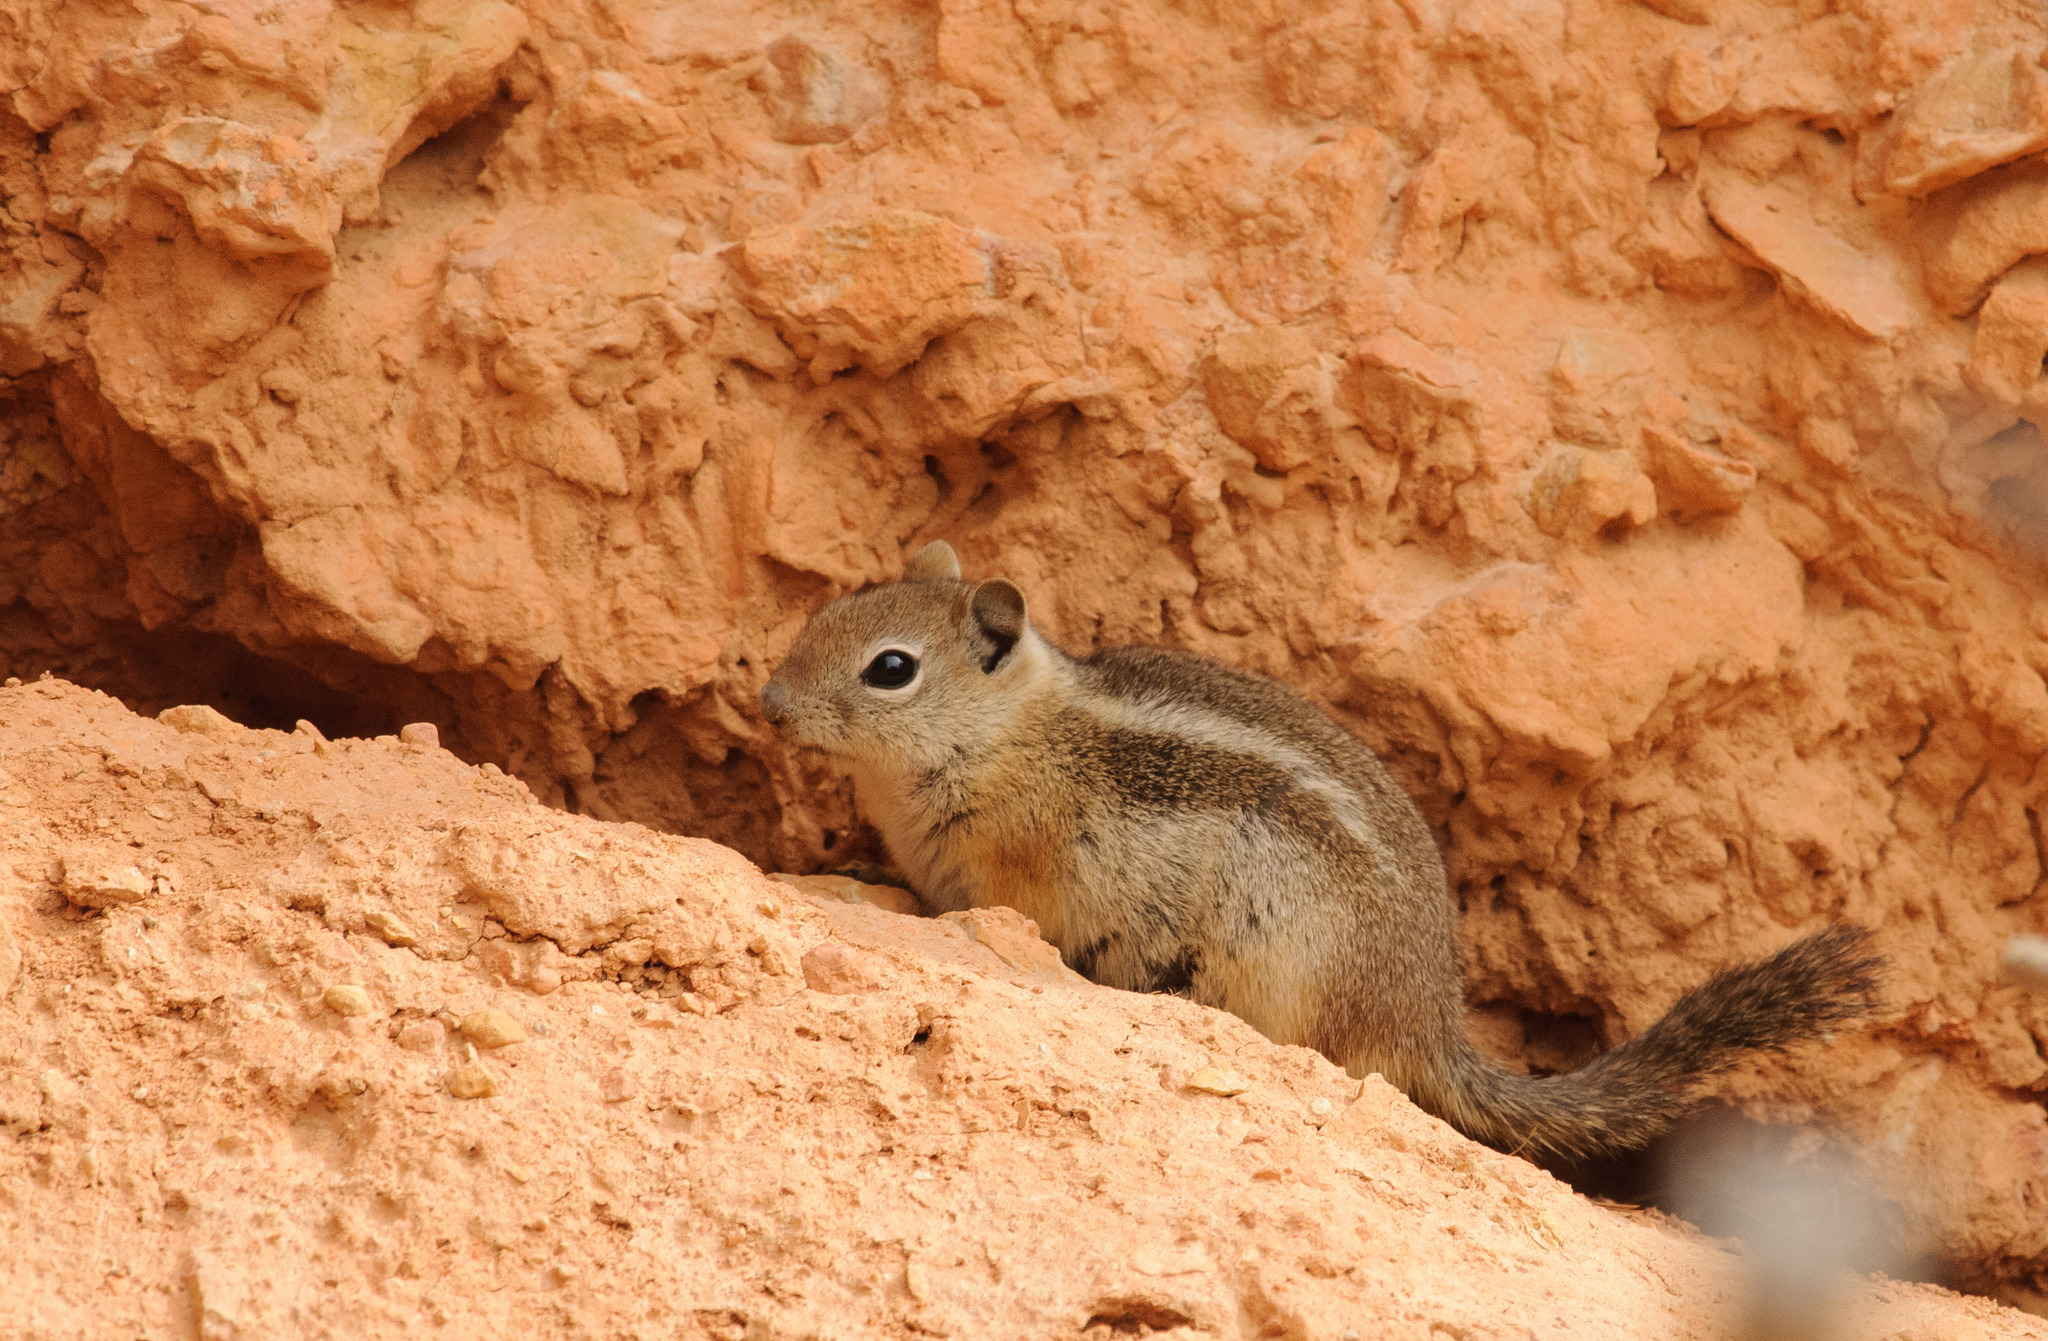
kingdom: Animalia
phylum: Chordata
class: Mammalia
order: Rodentia
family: Sciuridae
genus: Callospermophilus
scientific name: Callospermophilus lateralis
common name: Golden-mantled ground squirrel
